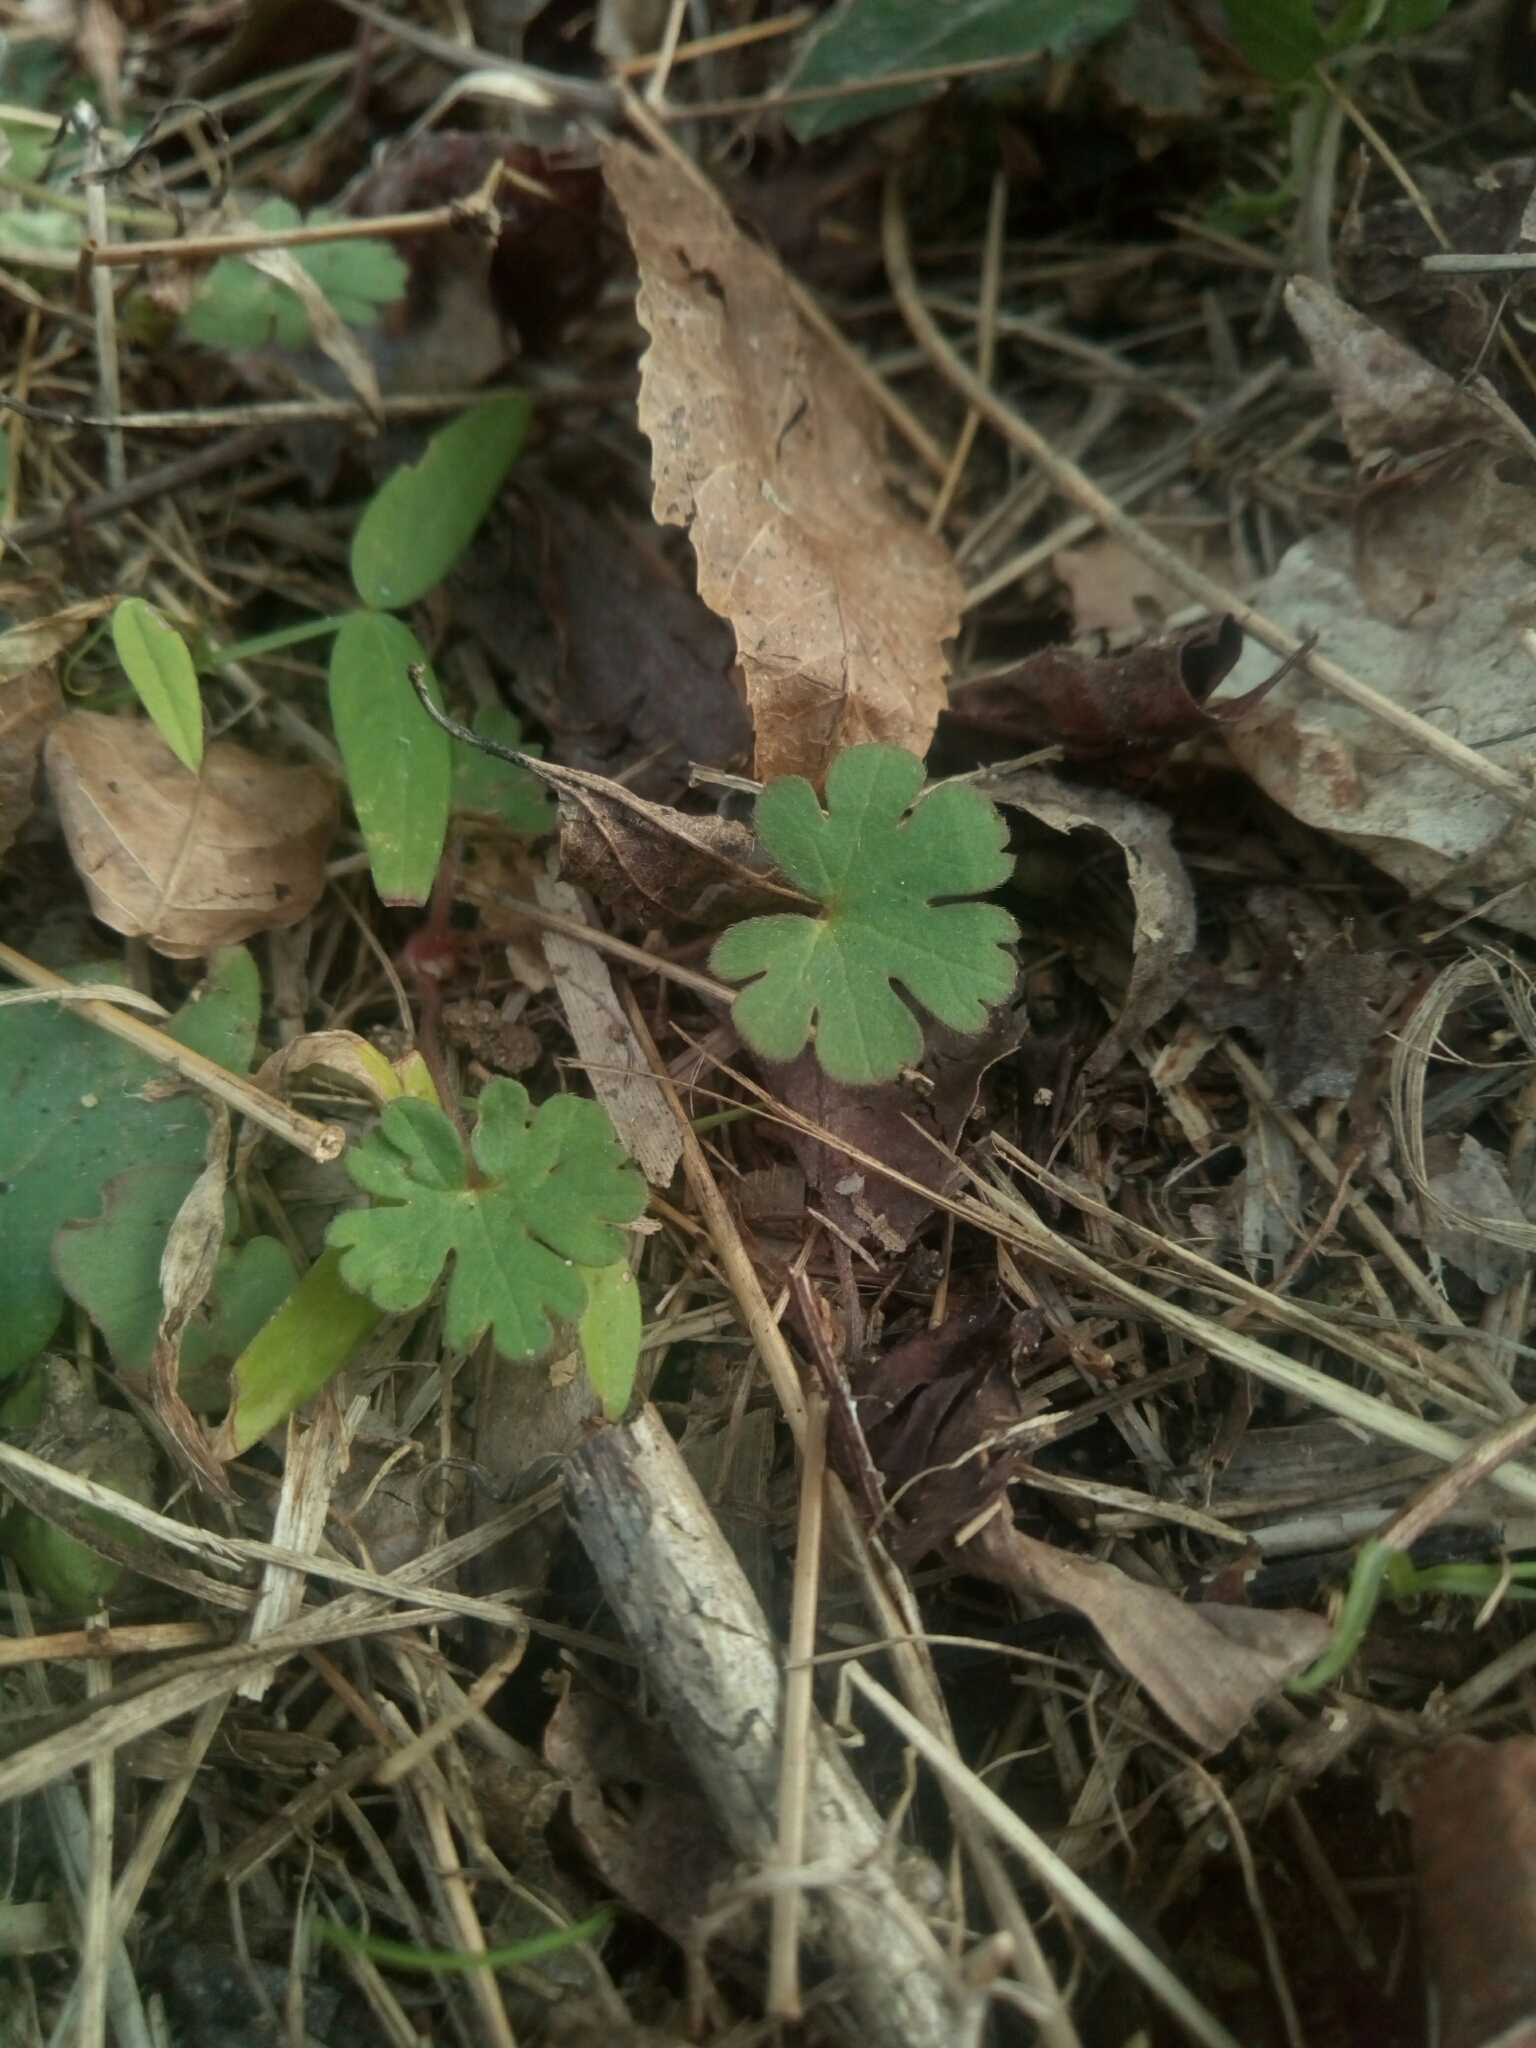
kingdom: Plantae
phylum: Tracheophyta
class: Magnoliopsida
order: Geraniales
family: Geraniaceae
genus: Geranium
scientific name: Geranium carolinianum
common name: Carolina crane's-bill
